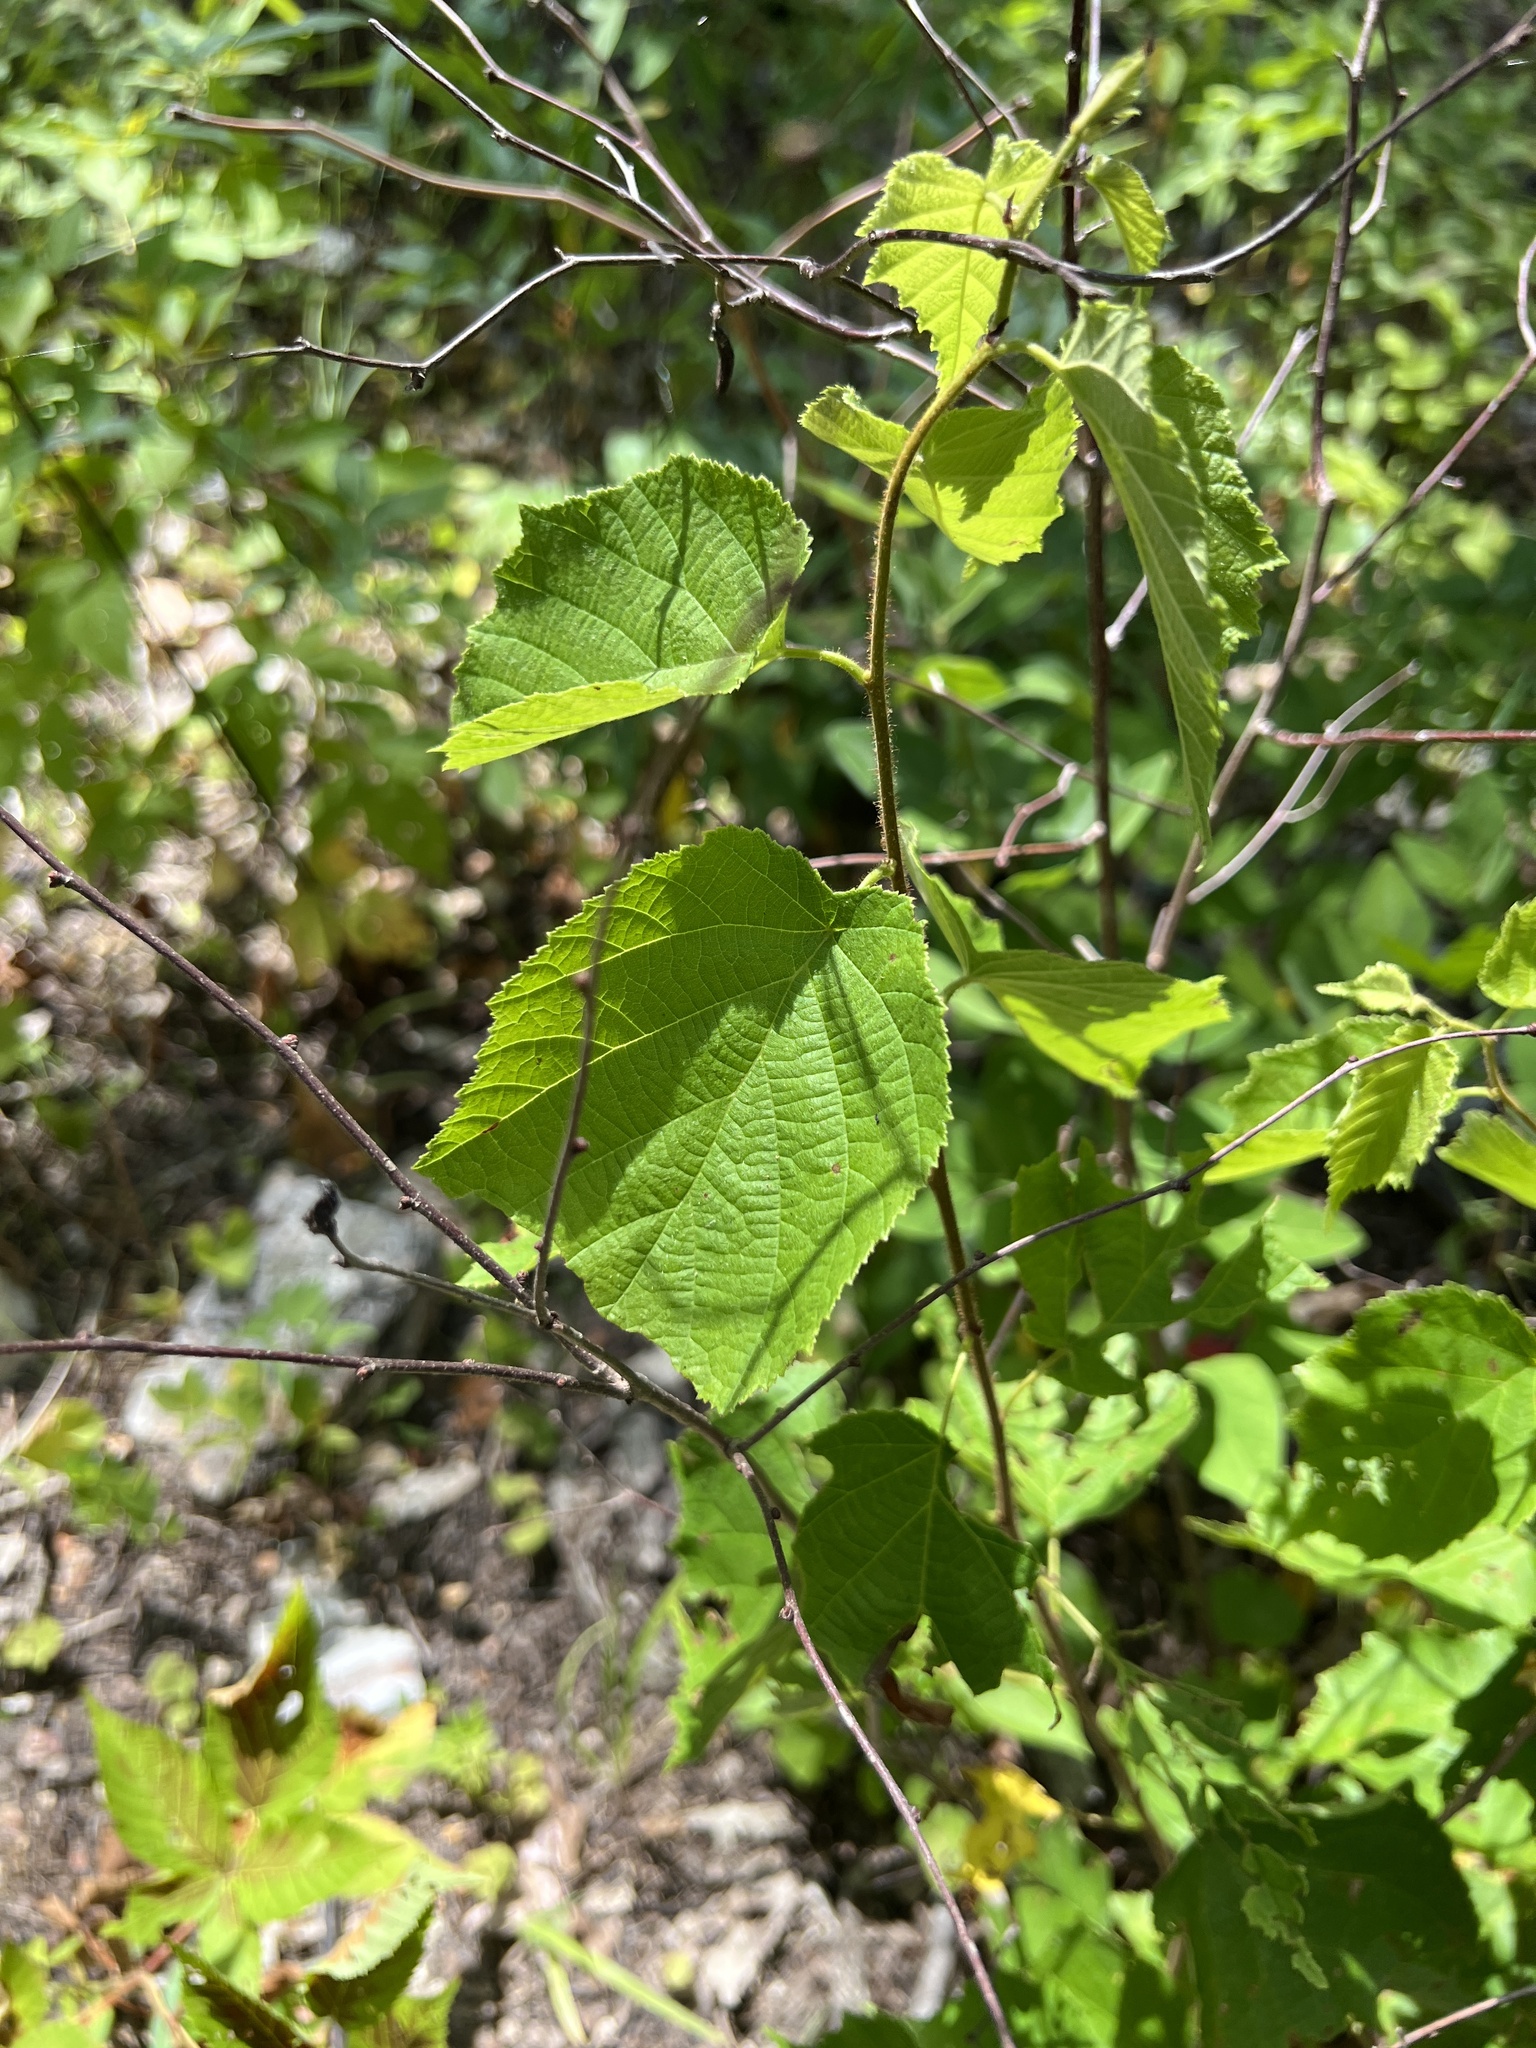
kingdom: Plantae
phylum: Tracheophyta
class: Magnoliopsida
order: Fagales
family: Betulaceae
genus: Corylus
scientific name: Corylus americana
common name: American hazel
